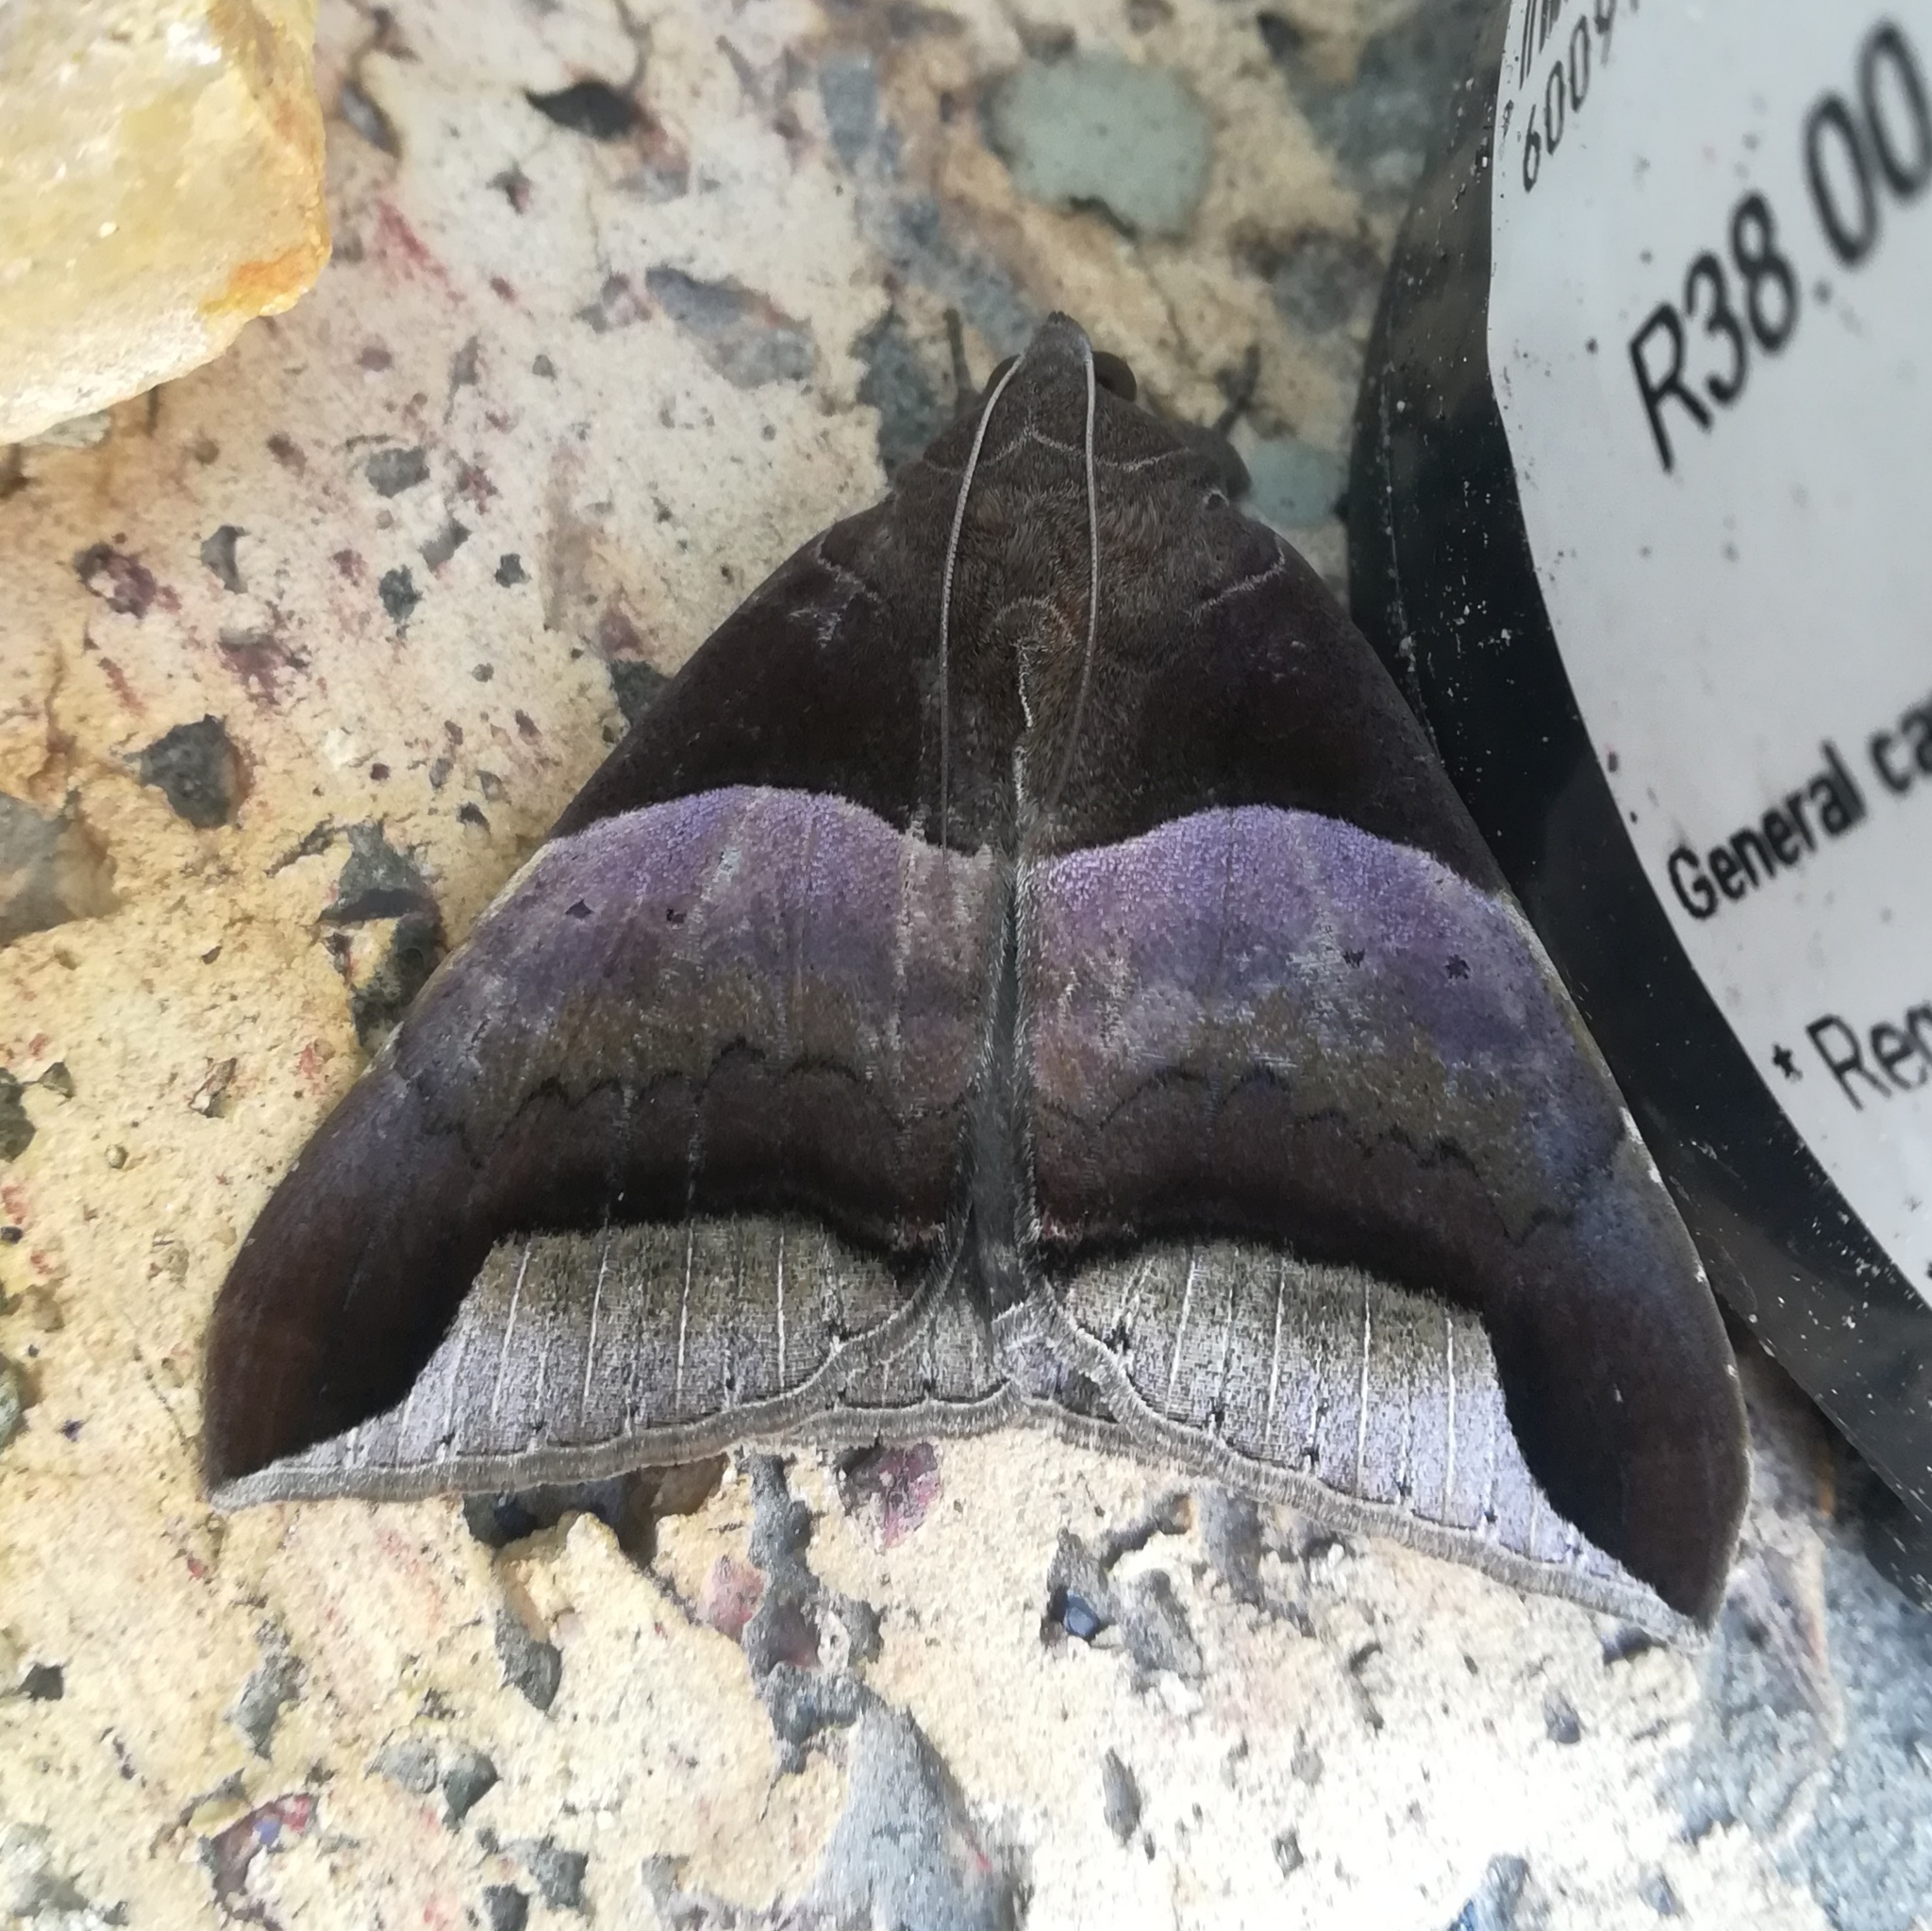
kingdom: Animalia
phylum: Arthropoda
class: Insecta
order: Lepidoptera
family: Erebidae
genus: Achaea
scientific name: Achaea echo
